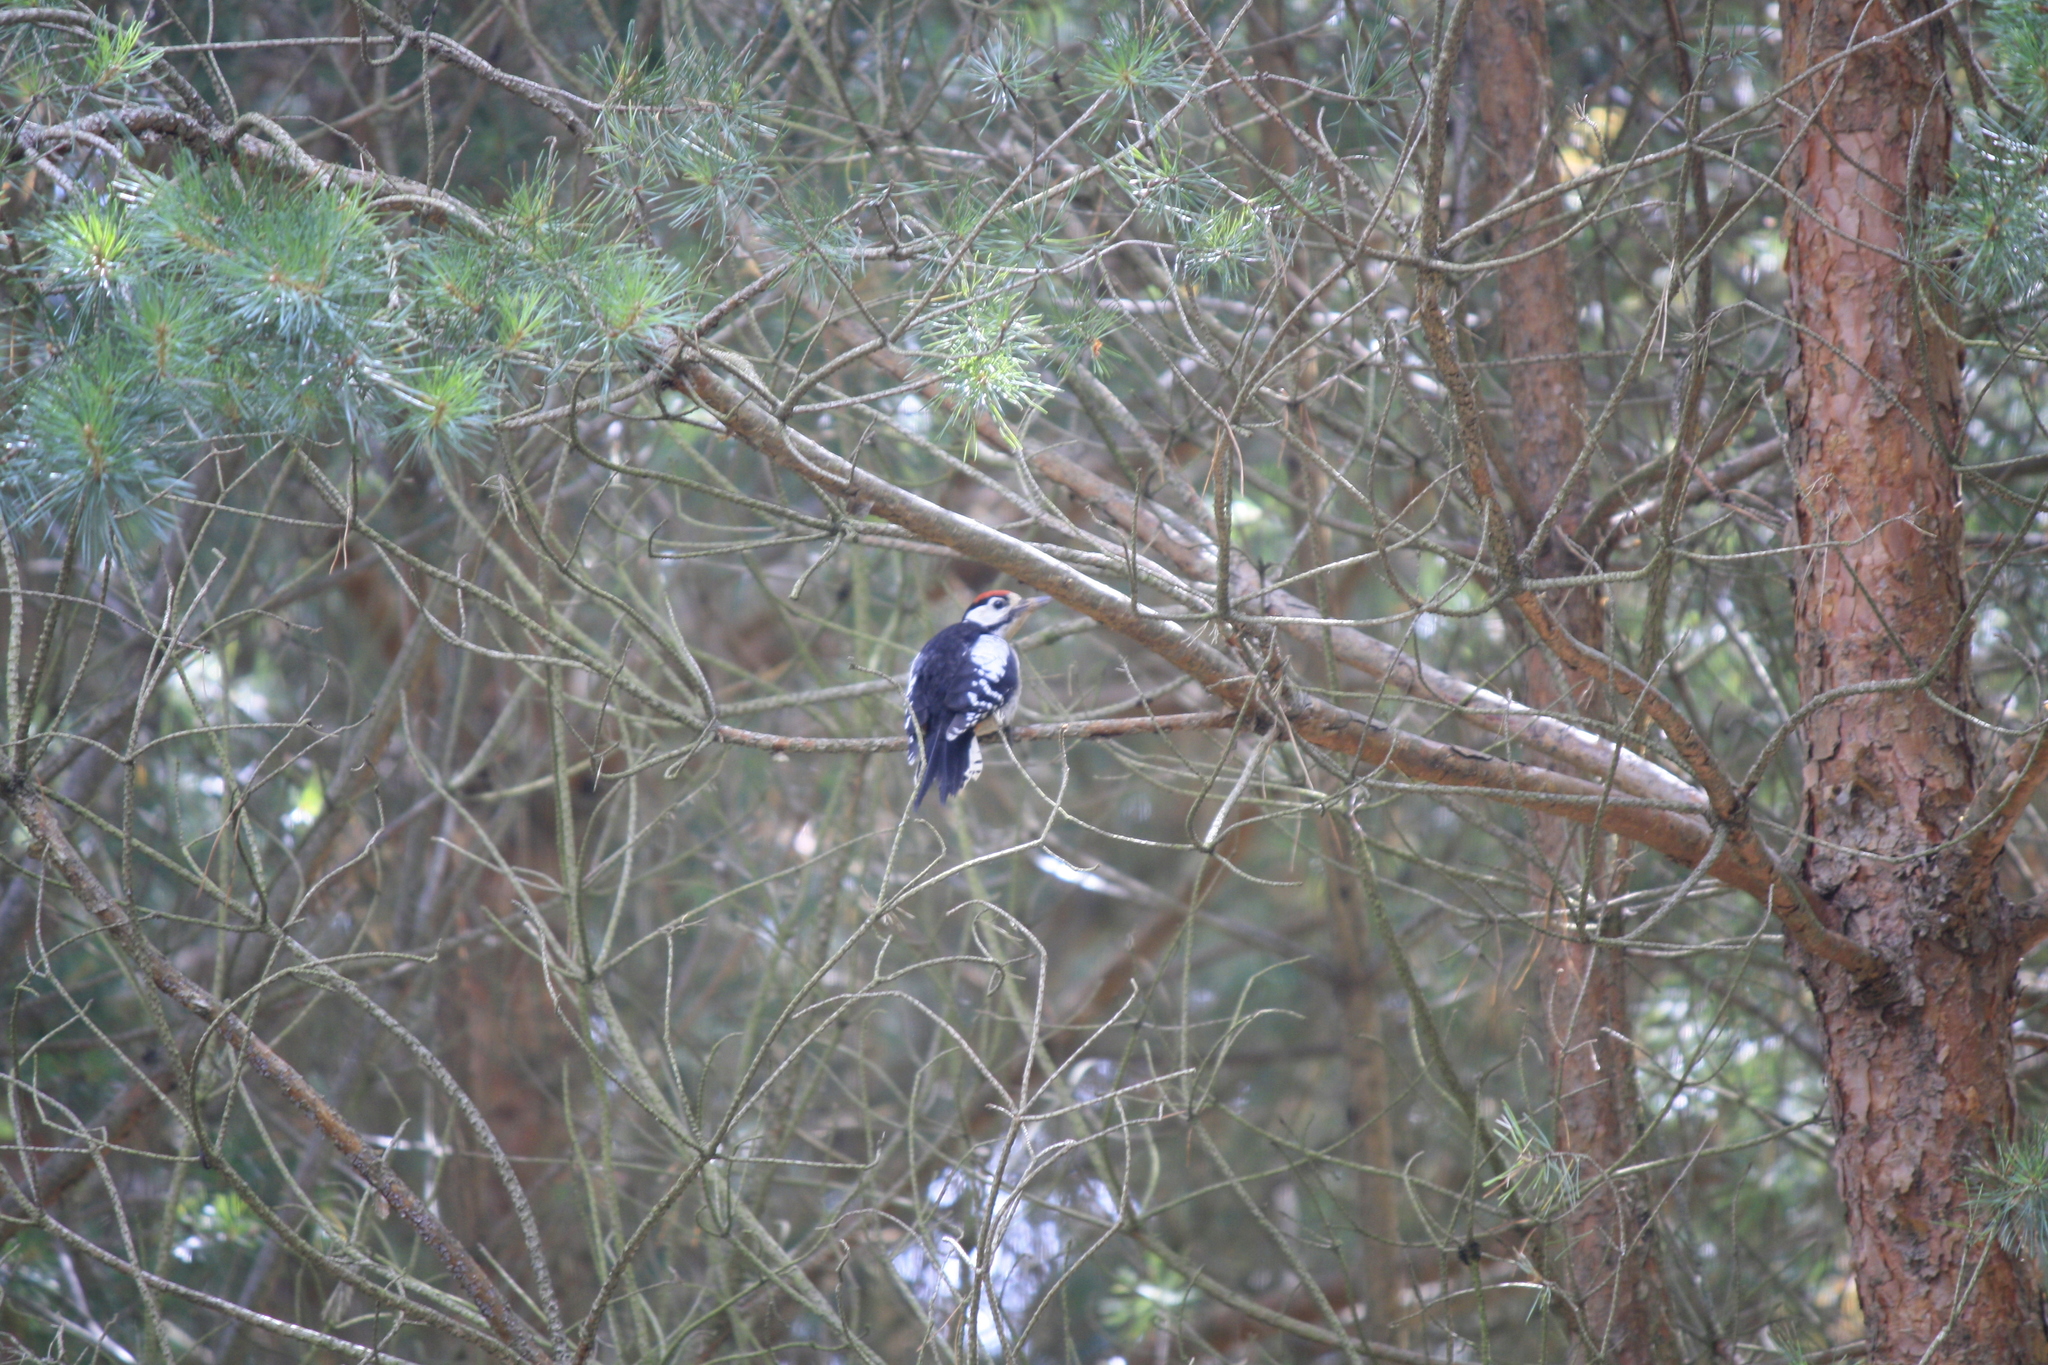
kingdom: Animalia
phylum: Chordata
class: Aves
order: Piciformes
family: Picidae
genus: Dendrocopos
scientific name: Dendrocopos major
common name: Great spotted woodpecker
